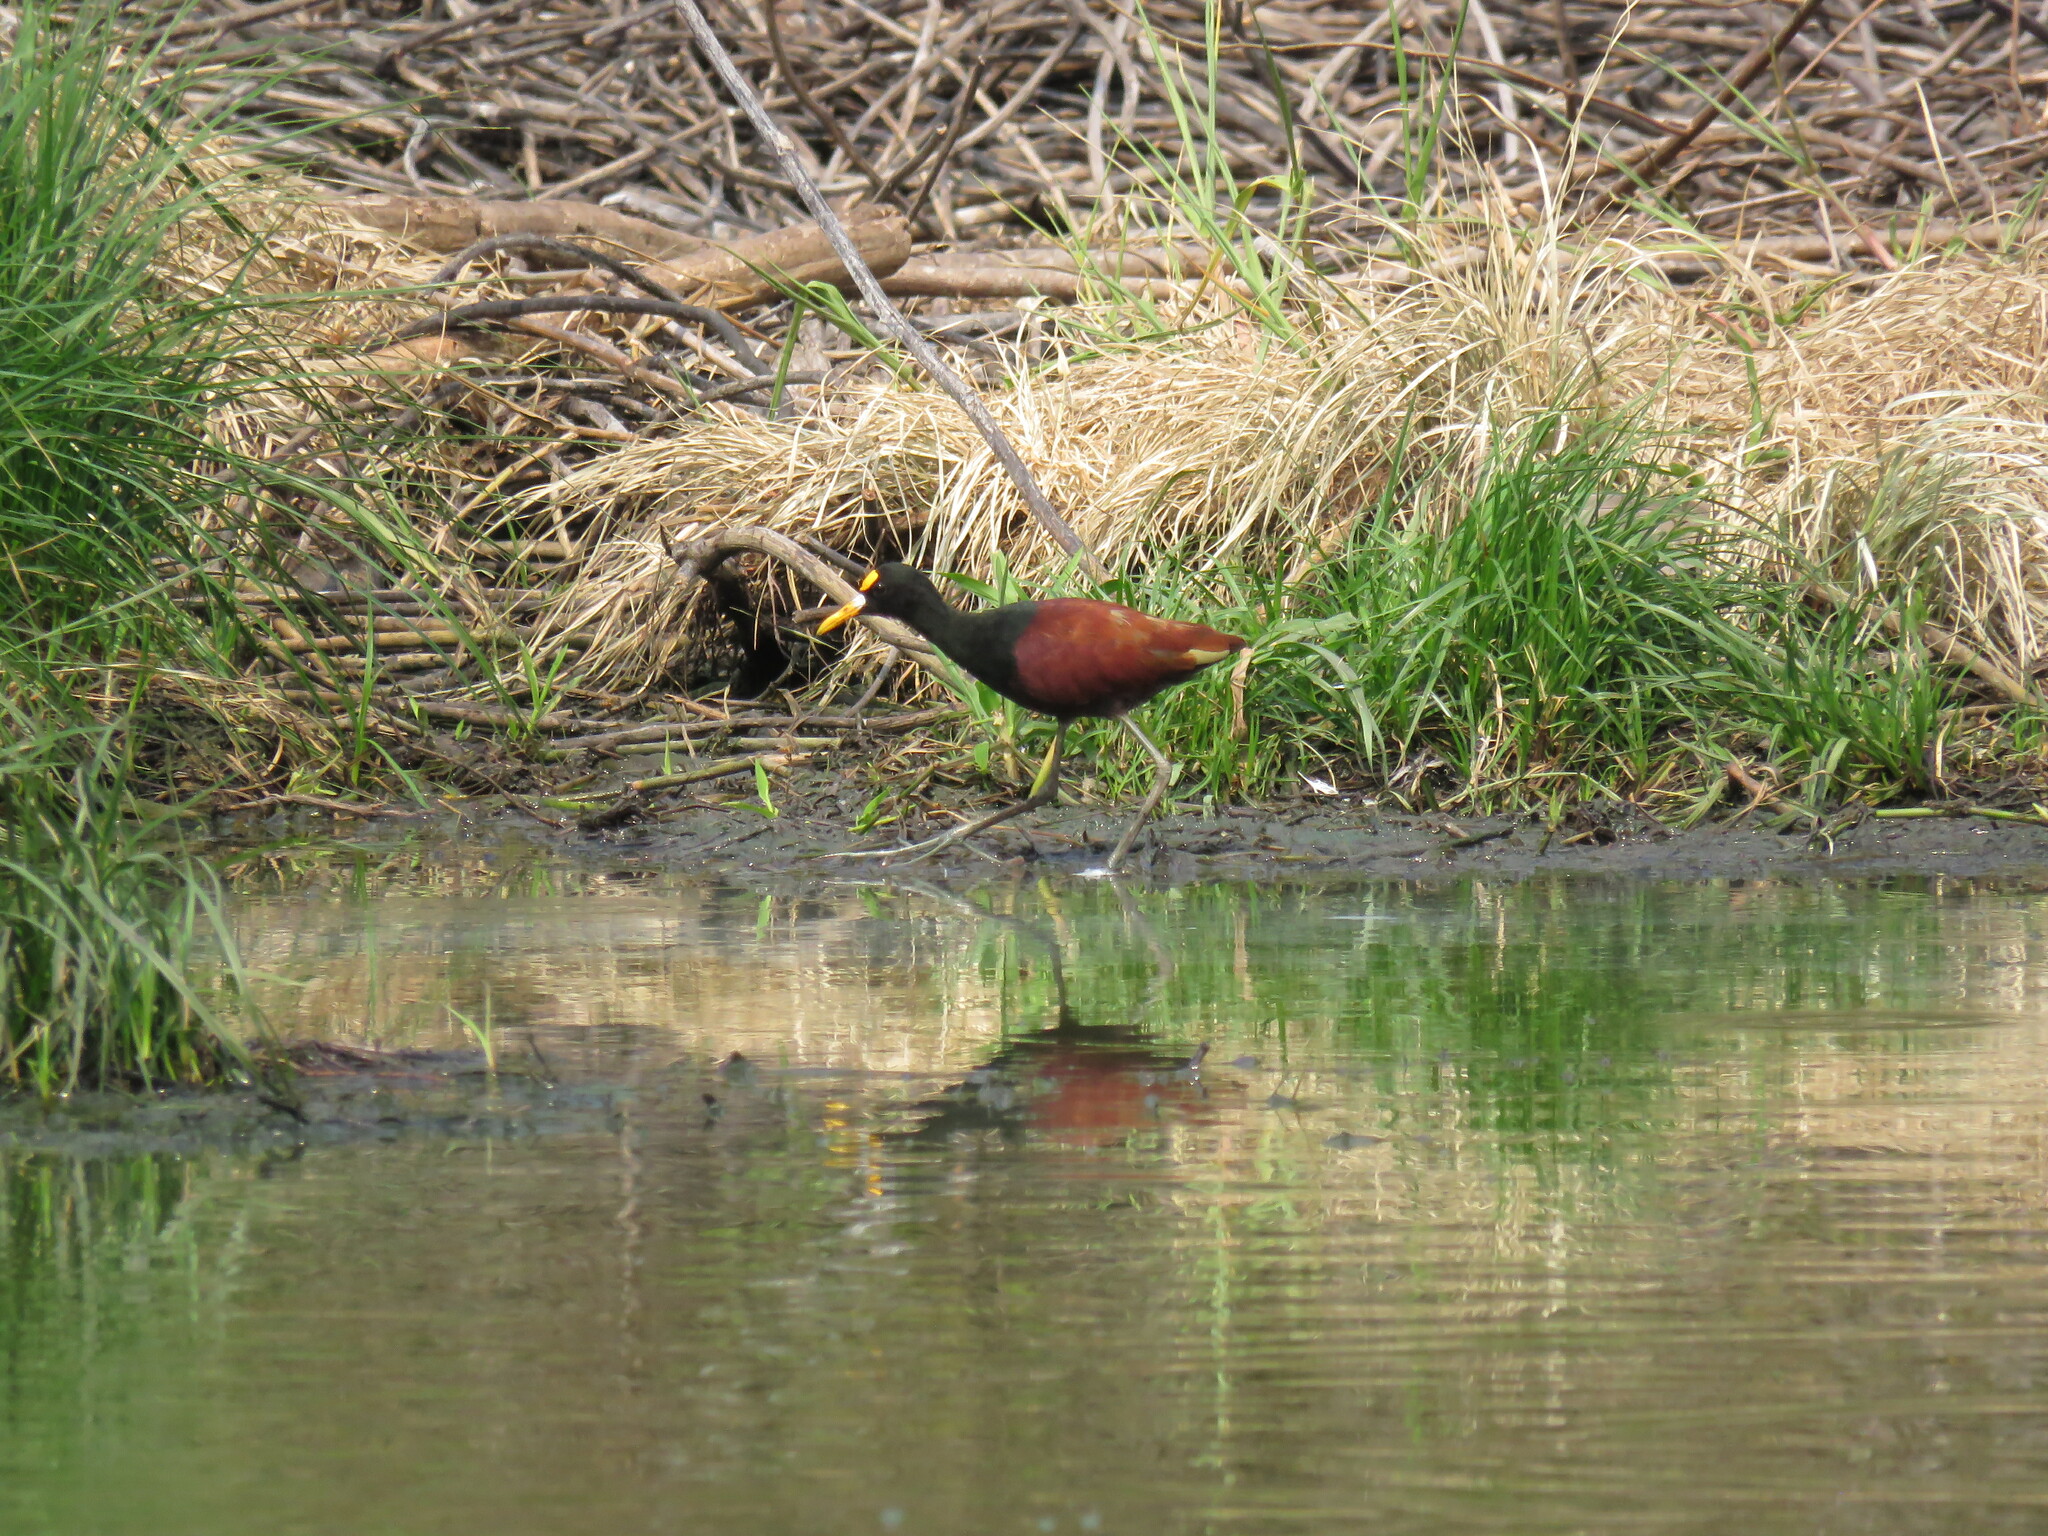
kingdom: Animalia
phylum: Chordata
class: Aves
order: Charadriiformes
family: Jacanidae
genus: Jacana
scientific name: Jacana spinosa
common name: Northern jacana
